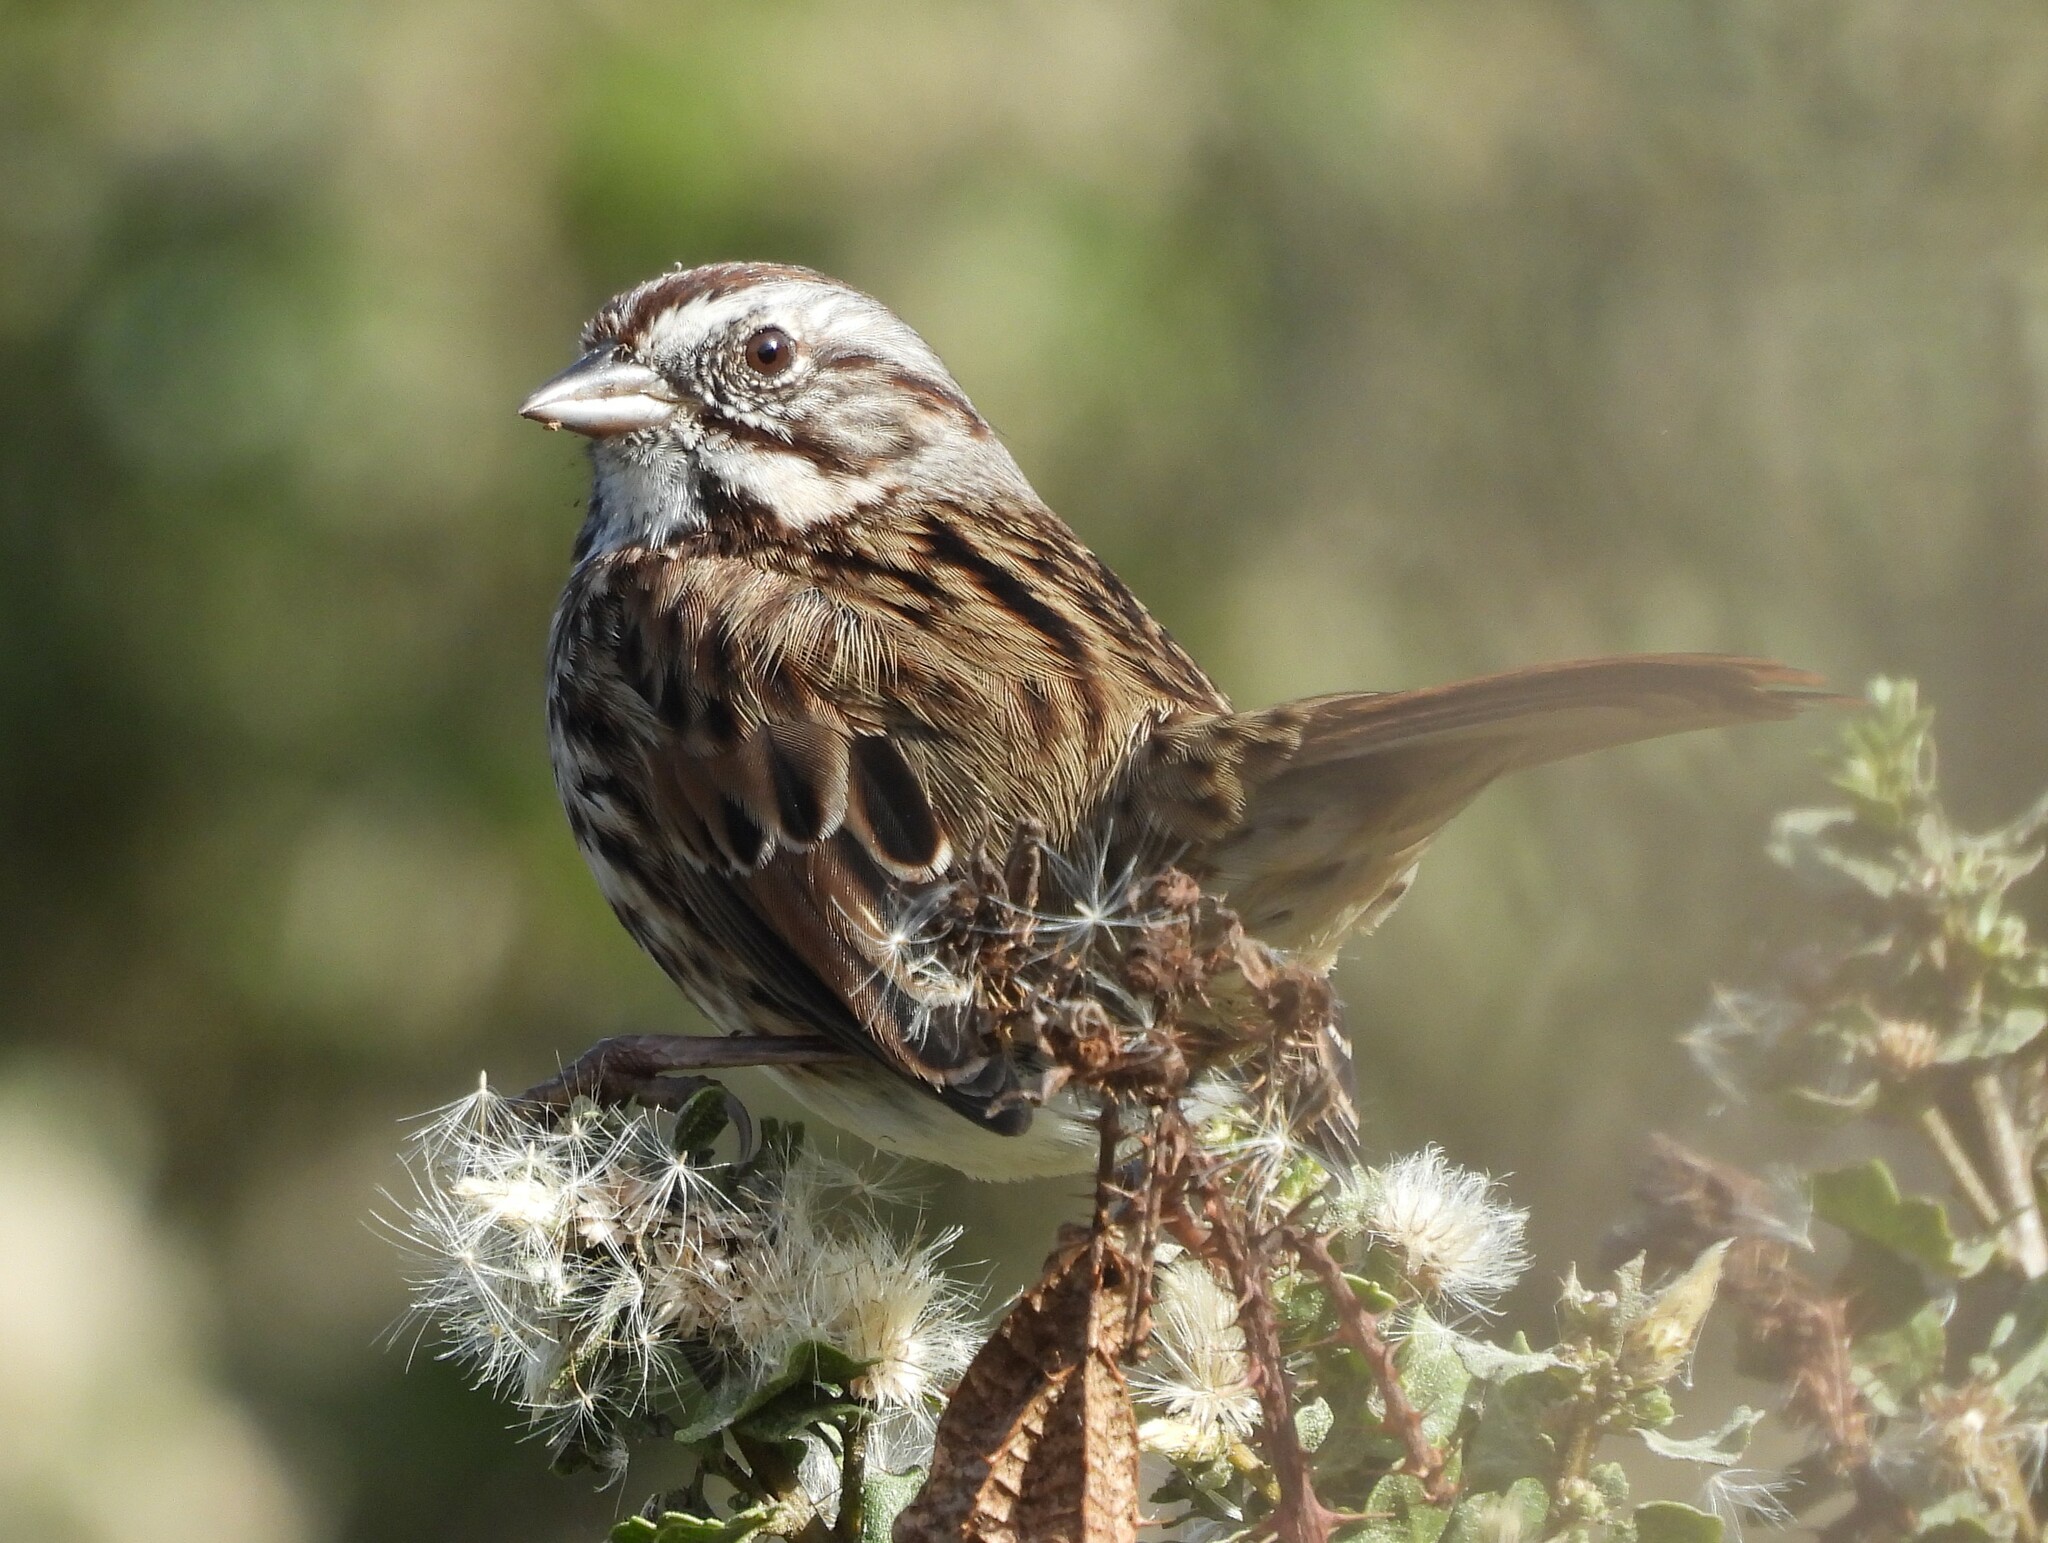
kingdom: Animalia
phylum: Chordata
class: Aves
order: Passeriformes
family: Passerellidae
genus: Melospiza
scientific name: Melospiza melodia
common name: Song sparrow
